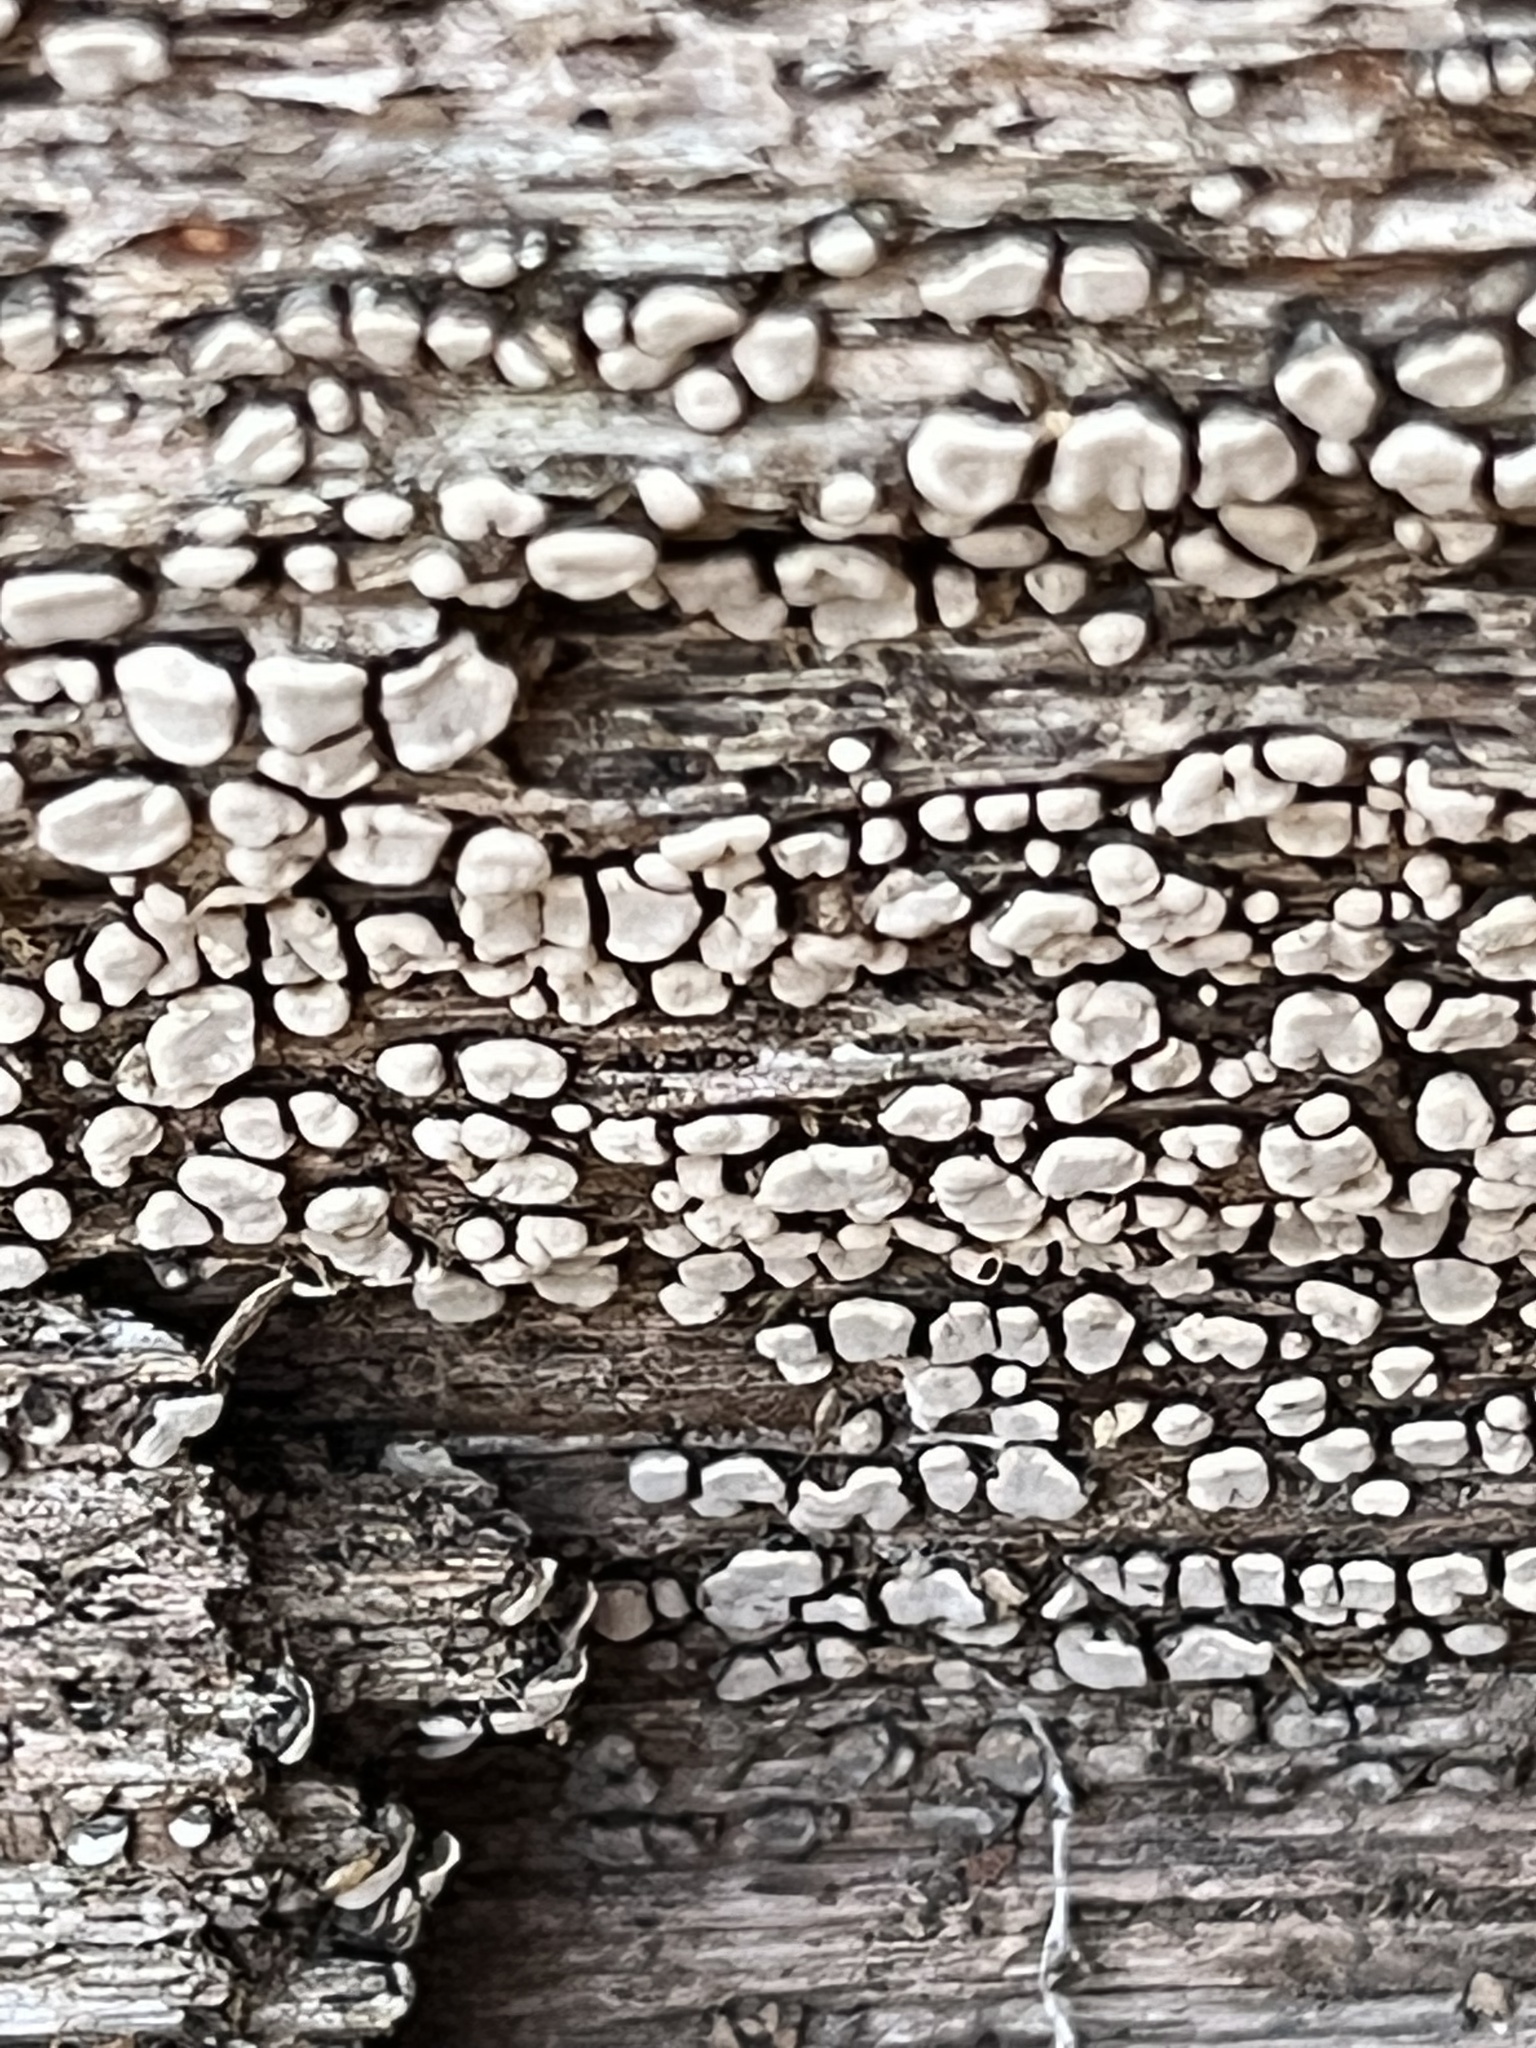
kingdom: Fungi
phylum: Basidiomycota
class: Agaricomycetes
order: Russulales
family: Stereaceae
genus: Xylobolus
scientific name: Xylobolus frustulatus
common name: Ceramic parchment
